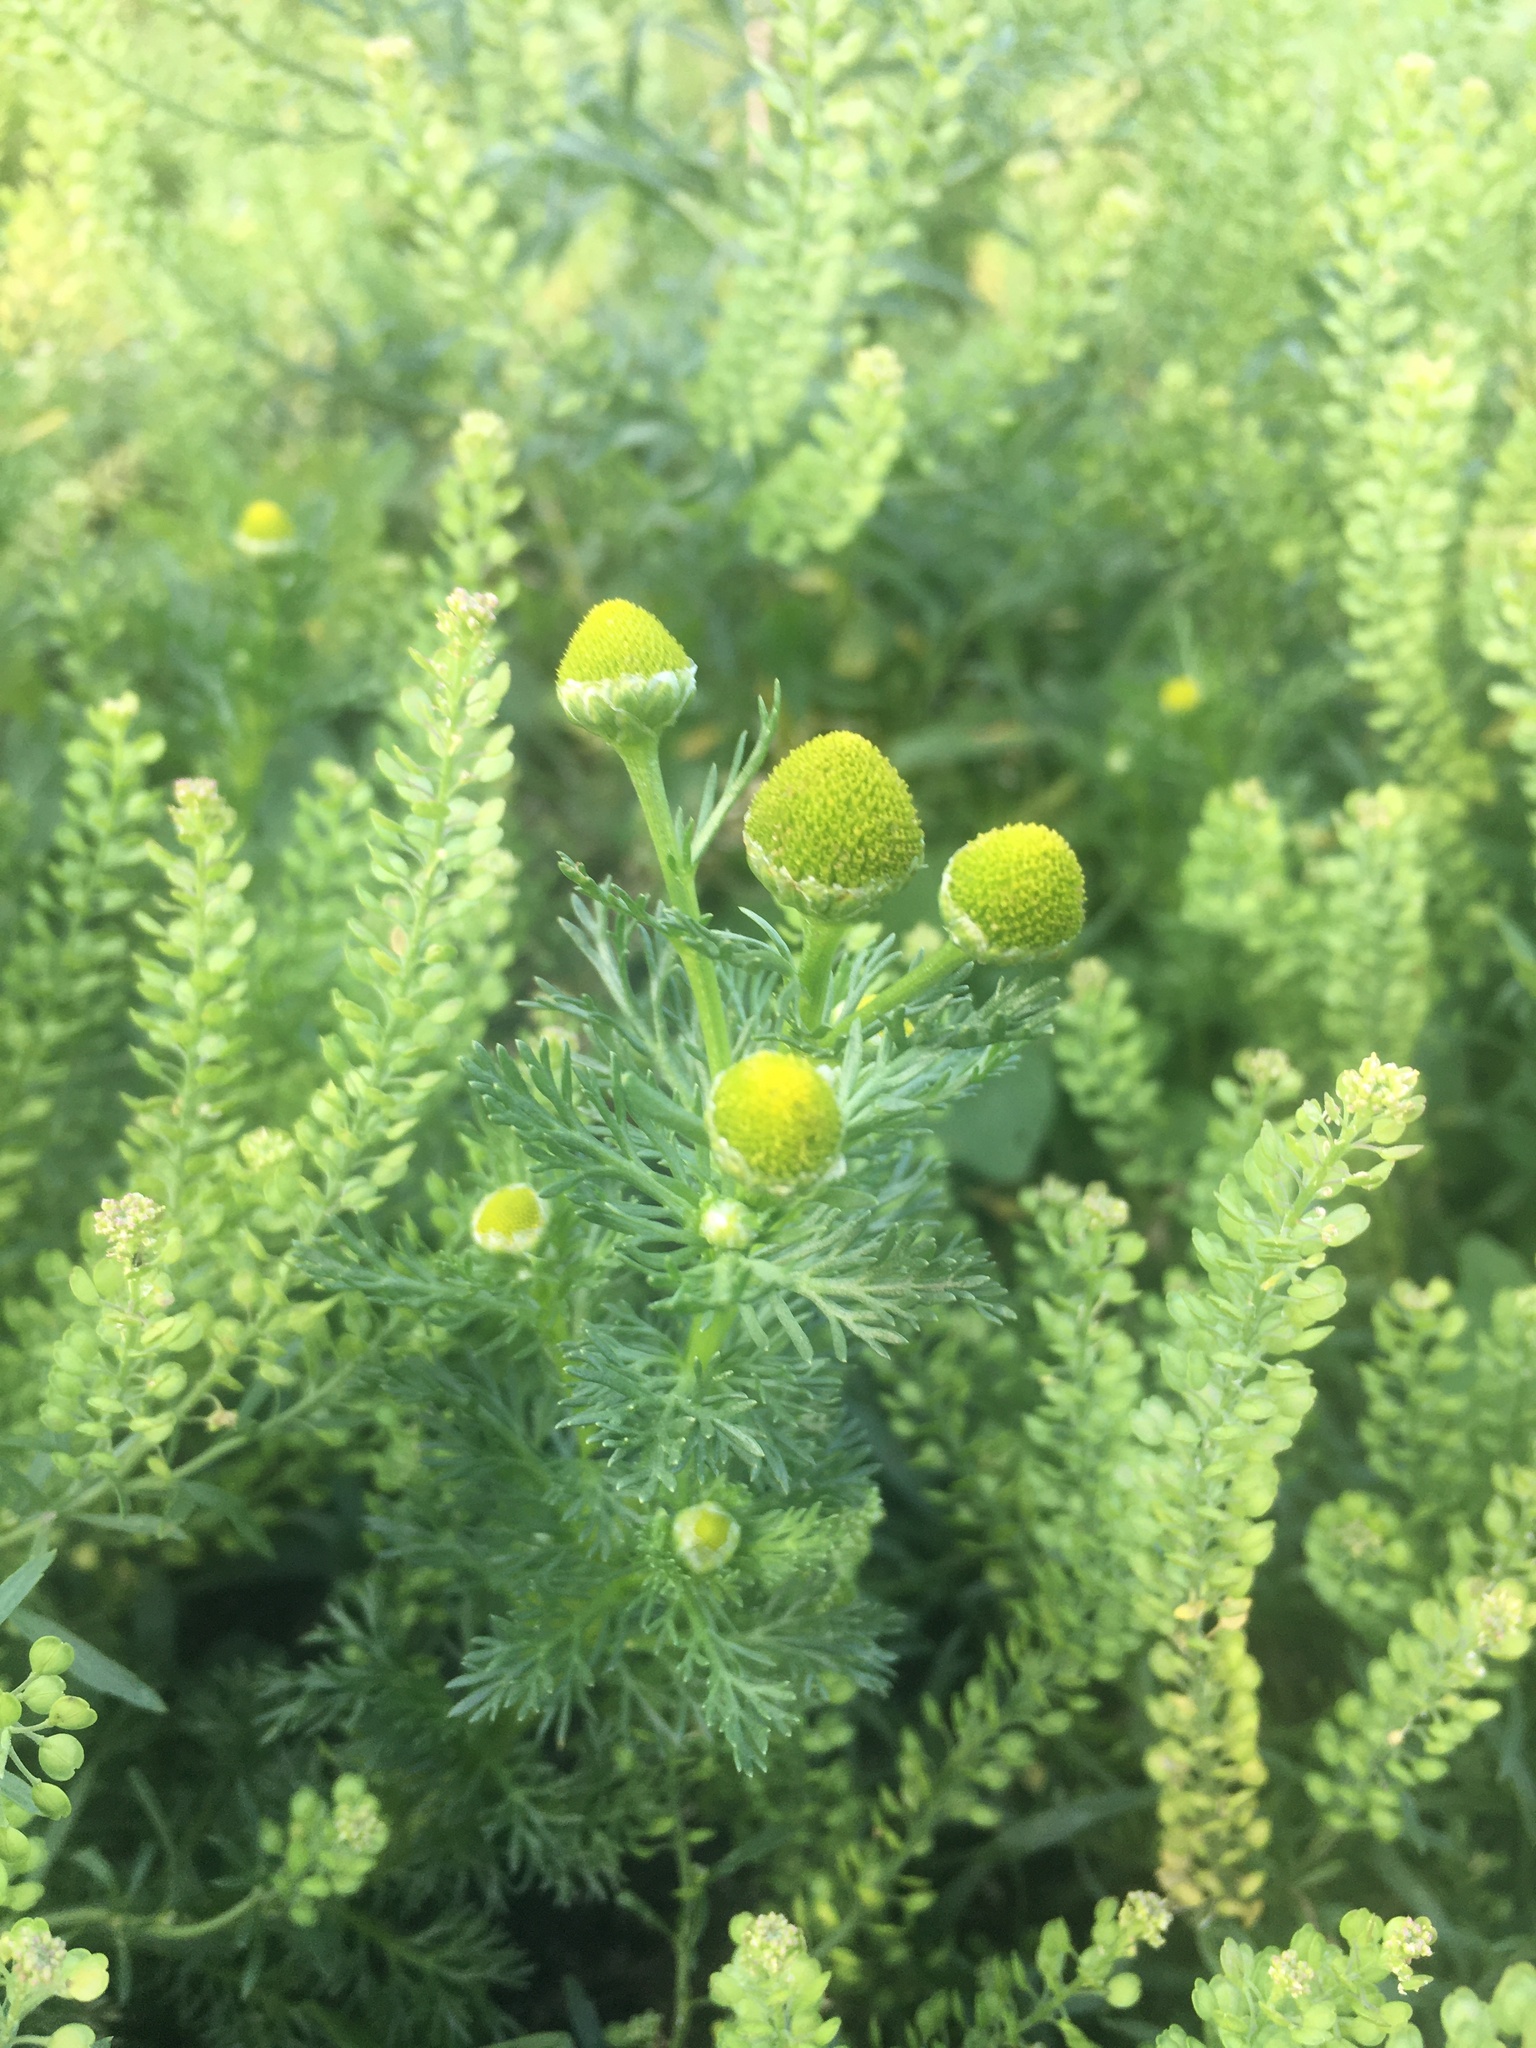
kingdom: Plantae
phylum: Tracheophyta
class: Magnoliopsida
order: Asterales
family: Asteraceae
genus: Matricaria
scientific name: Matricaria discoidea
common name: Disc mayweed
